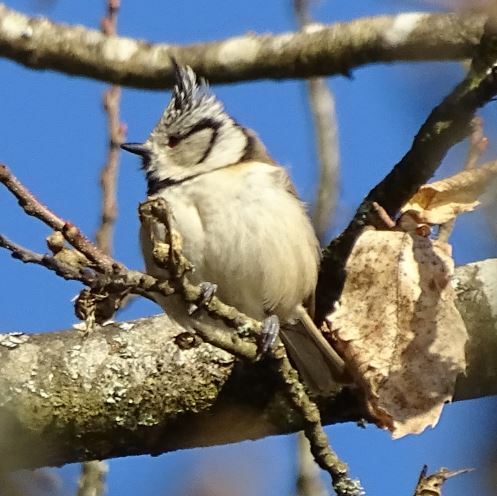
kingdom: Animalia
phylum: Chordata
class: Aves
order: Passeriformes
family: Paridae
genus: Lophophanes
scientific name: Lophophanes cristatus
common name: European crested tit
